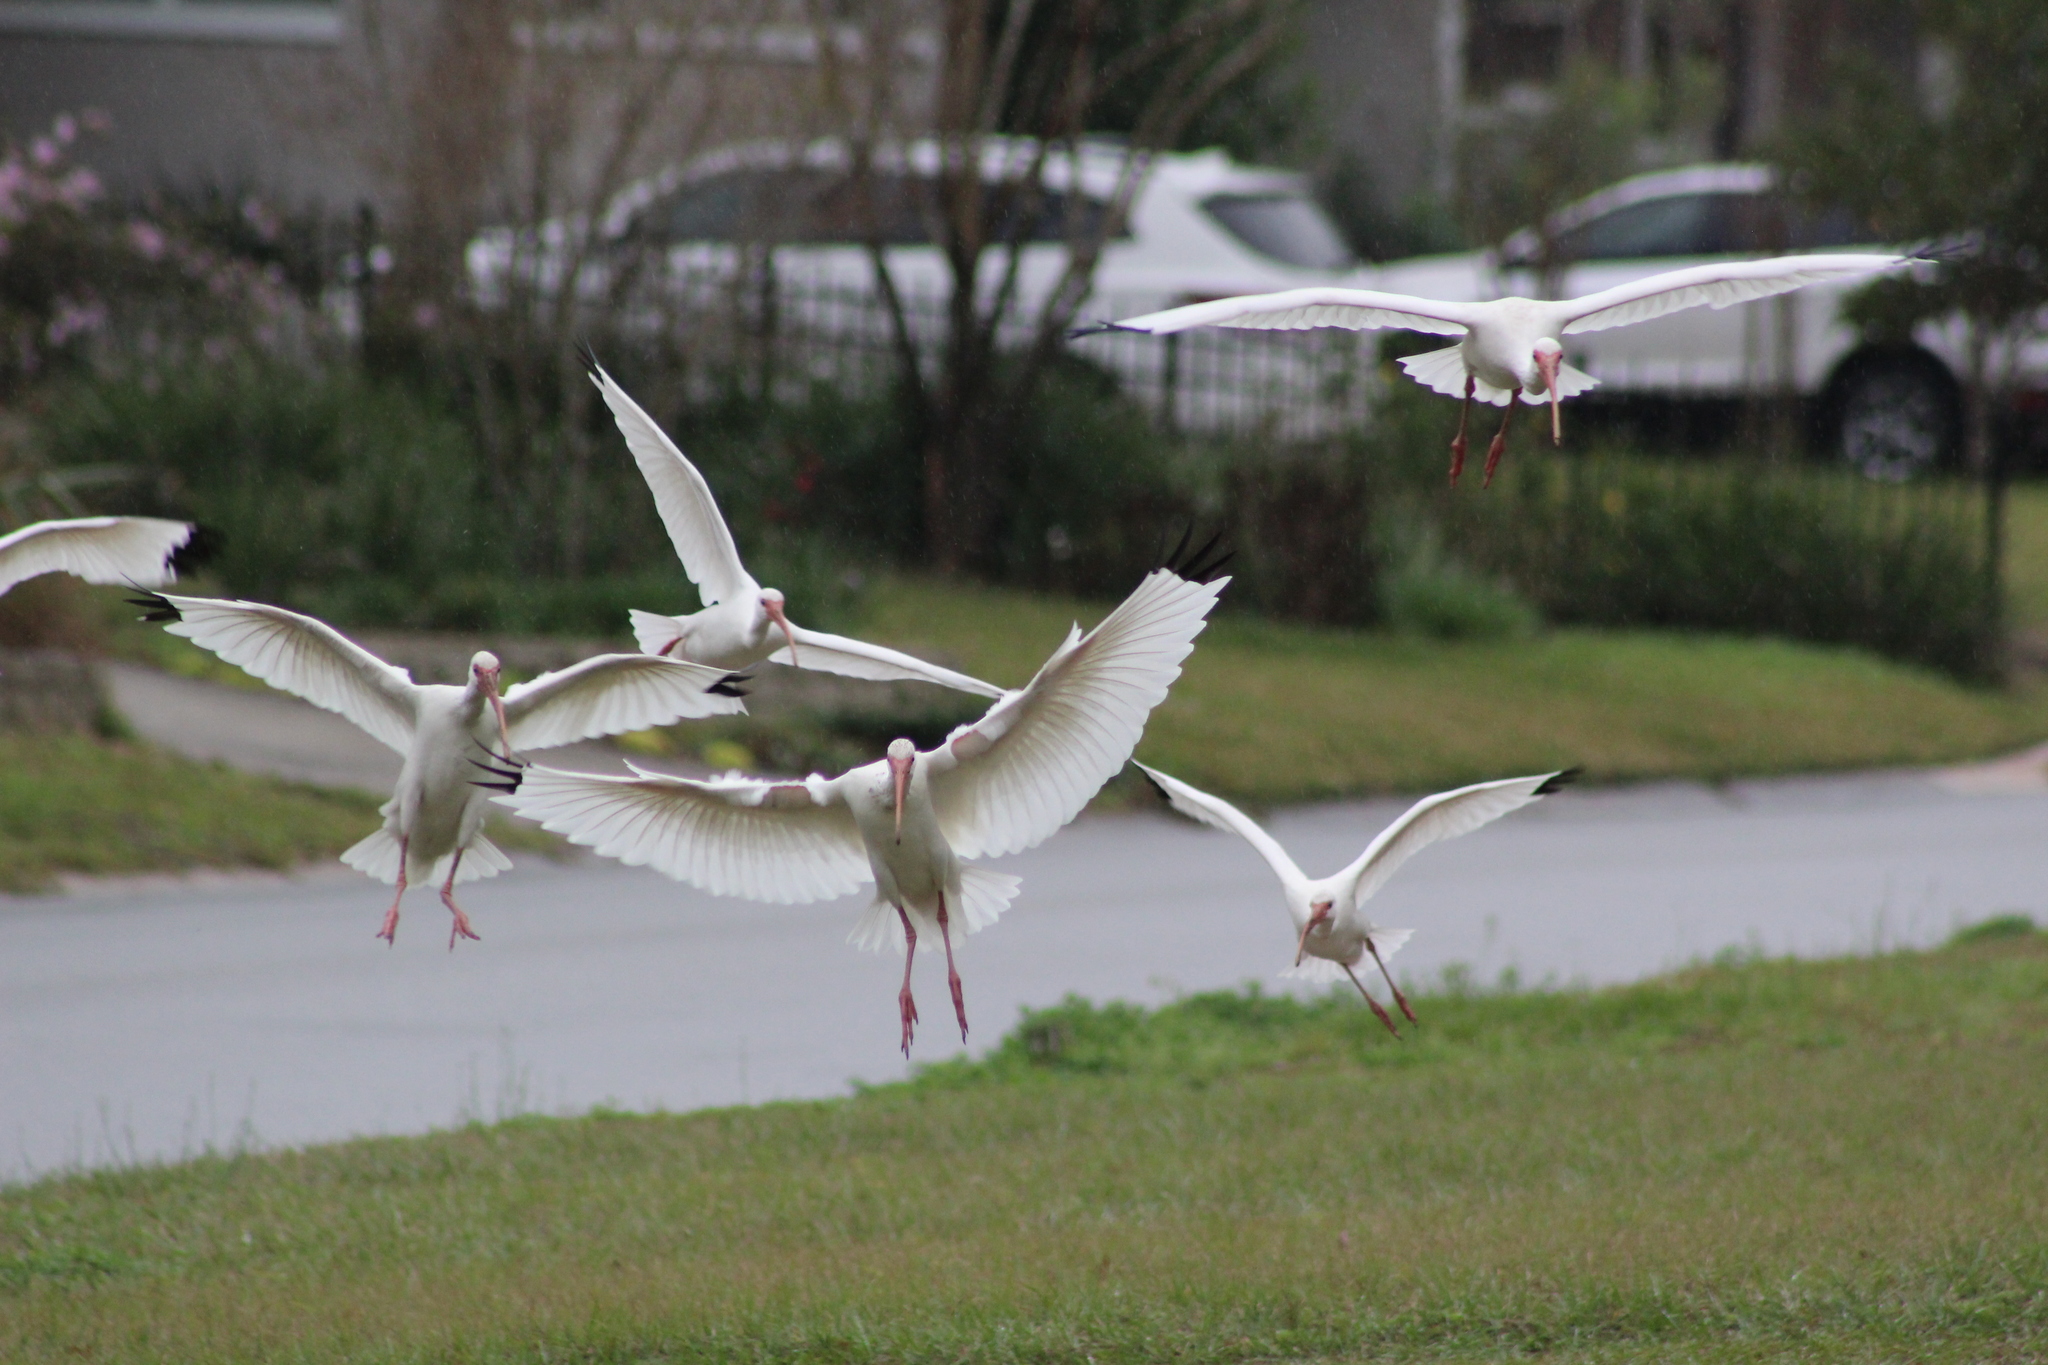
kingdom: Animalia
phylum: Chordata
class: Aves
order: Pelecaniformes
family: Threskiornithidae
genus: Eudocimus
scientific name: Eudocimus albus
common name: White ibis
